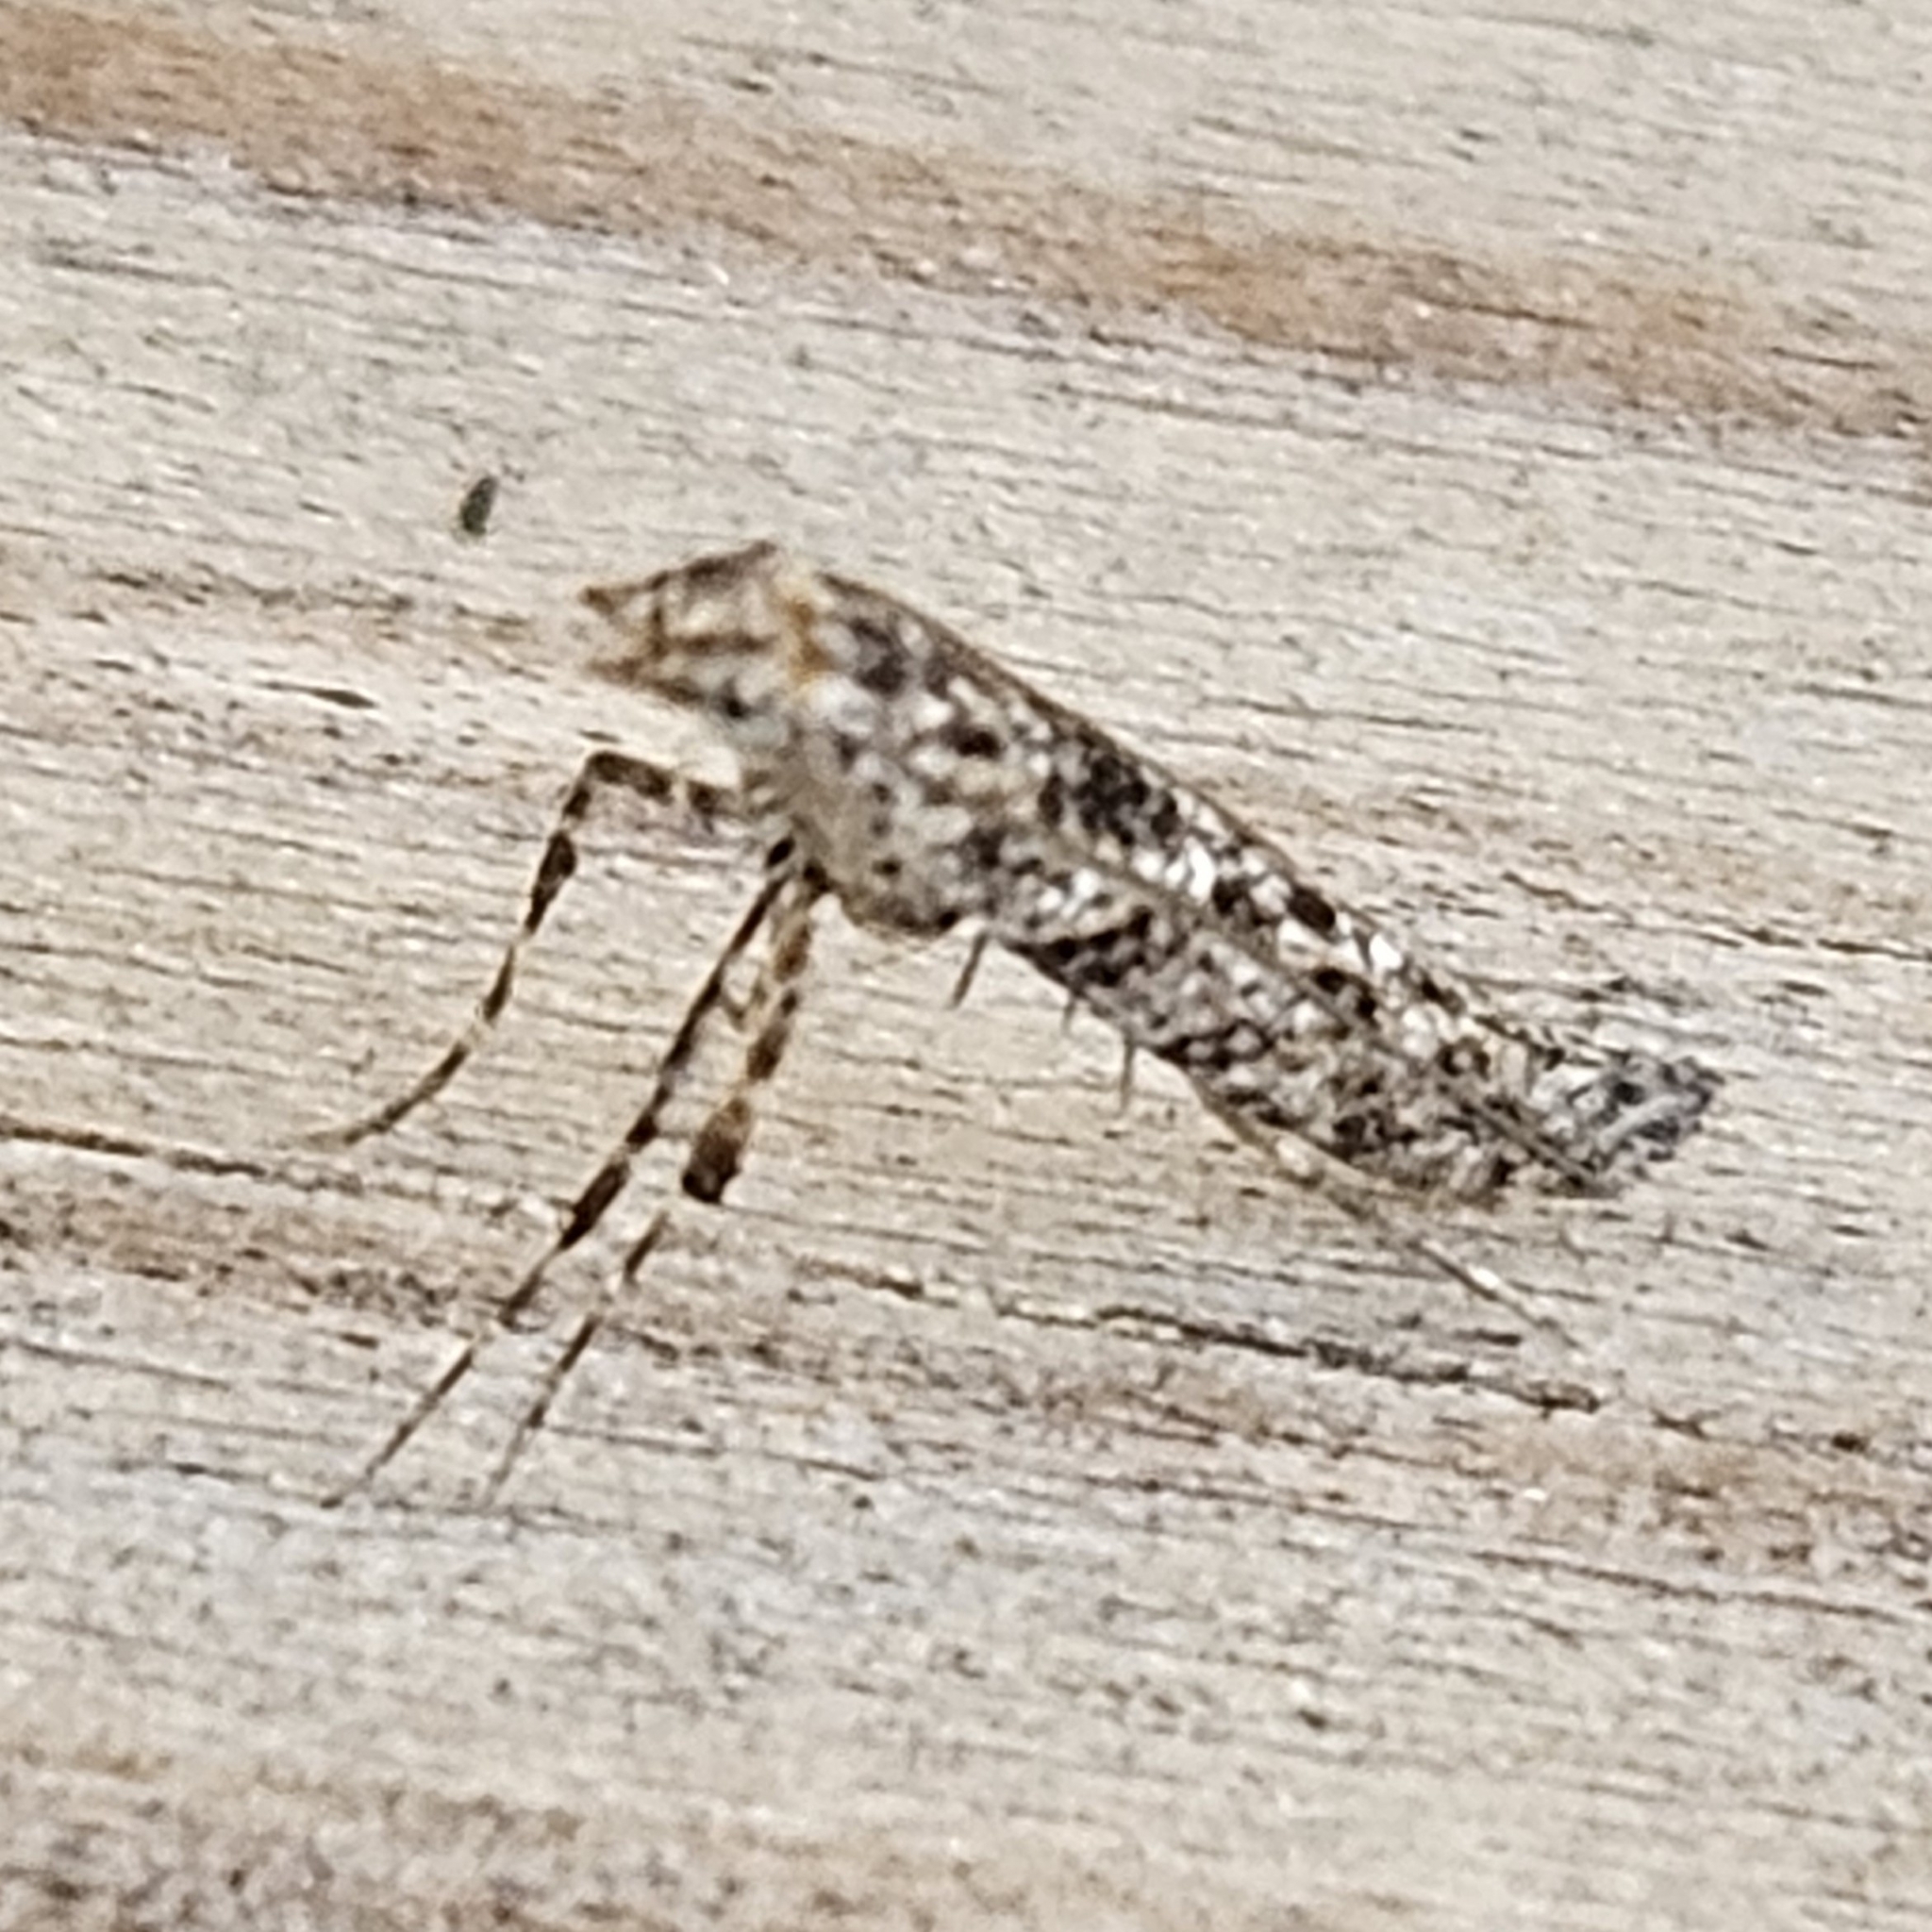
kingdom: Animalia
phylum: Arthropoda
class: Insecta
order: Lepidoptera
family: Gracillariidae
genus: Caloptilia
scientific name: Caloptilia fraxinella
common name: Ash leaf cone roller
